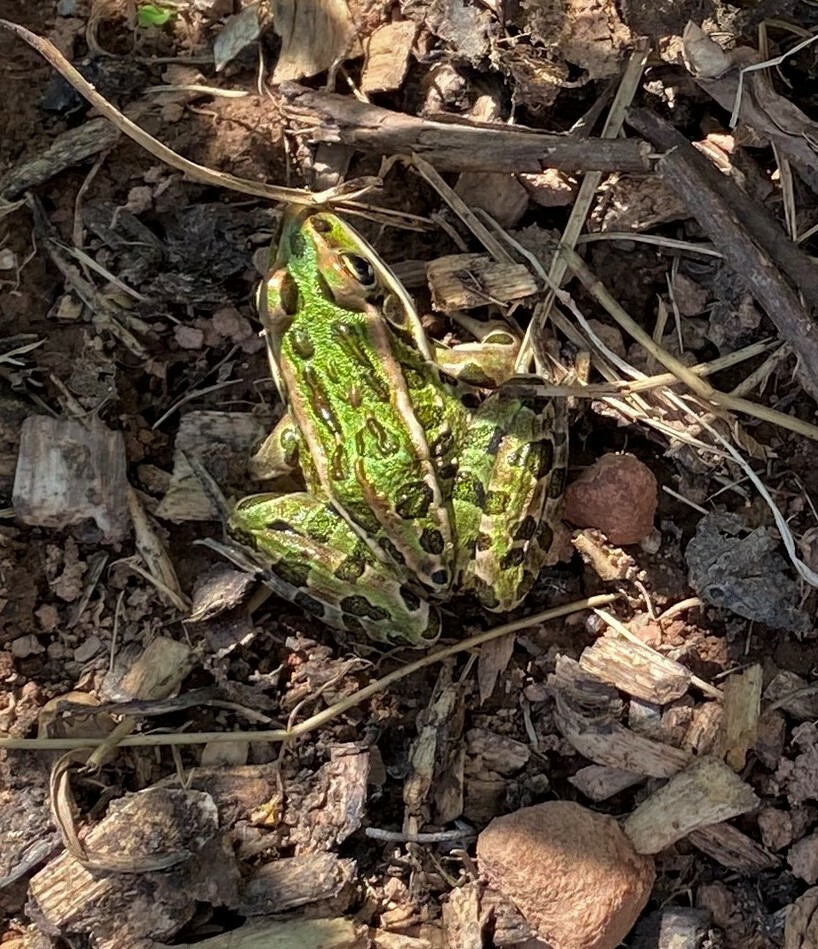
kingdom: Animalia
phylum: Chordata
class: Amphibia
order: Anura
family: Ranidae
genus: Lithobates
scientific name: Lithobates pipiens
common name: Northern leopard frog
